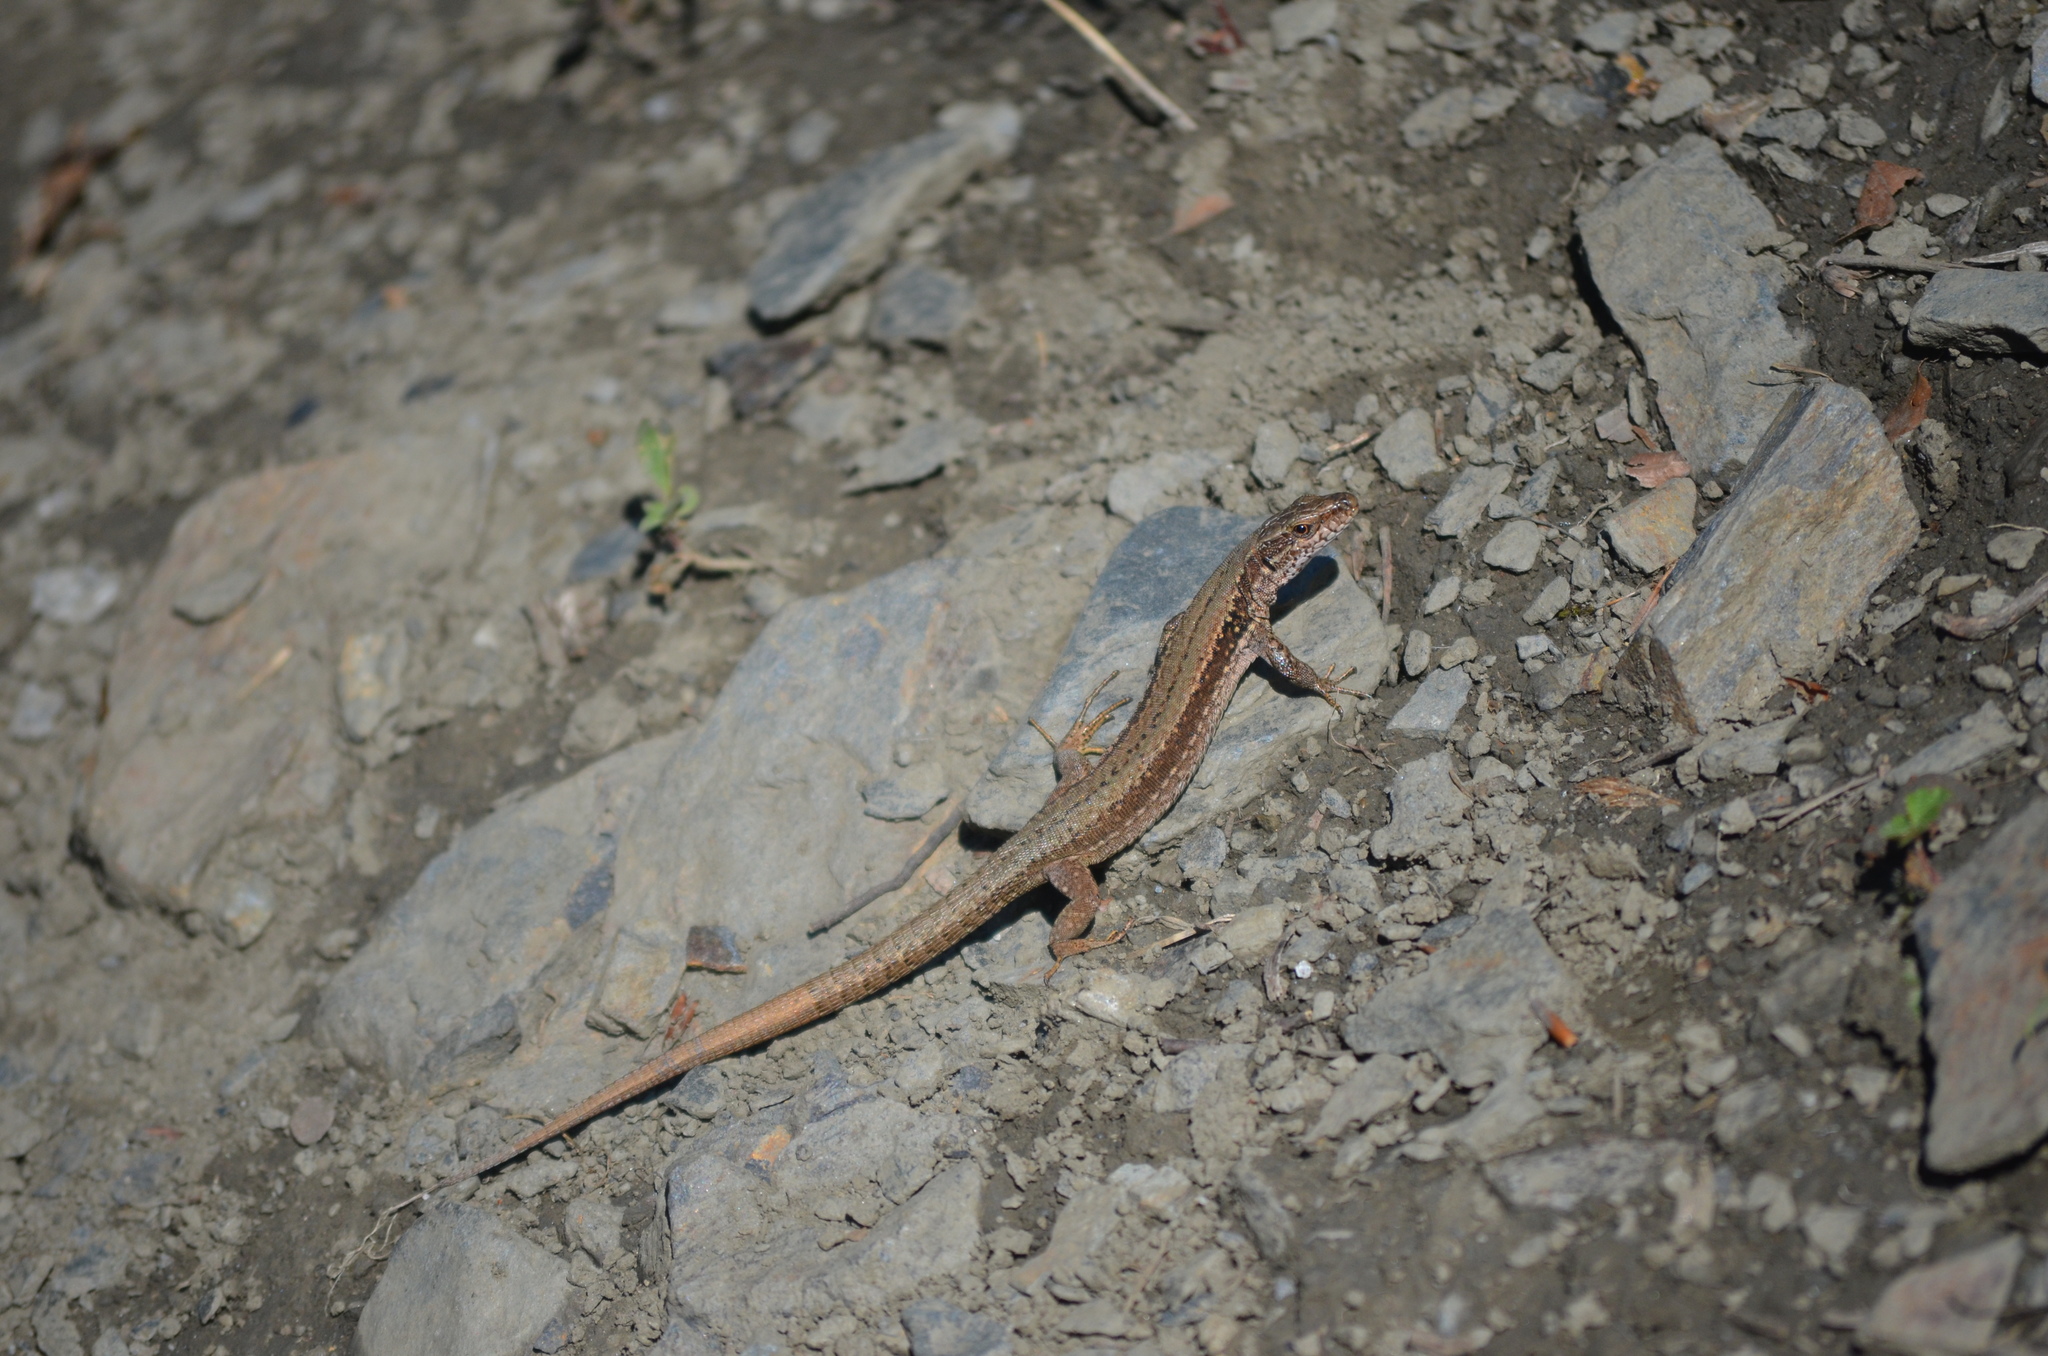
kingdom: Animalia
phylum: Chordata
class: Squamata
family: Lacertidae
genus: Podarcis
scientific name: Podarcis muralis
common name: Common wall lizard
